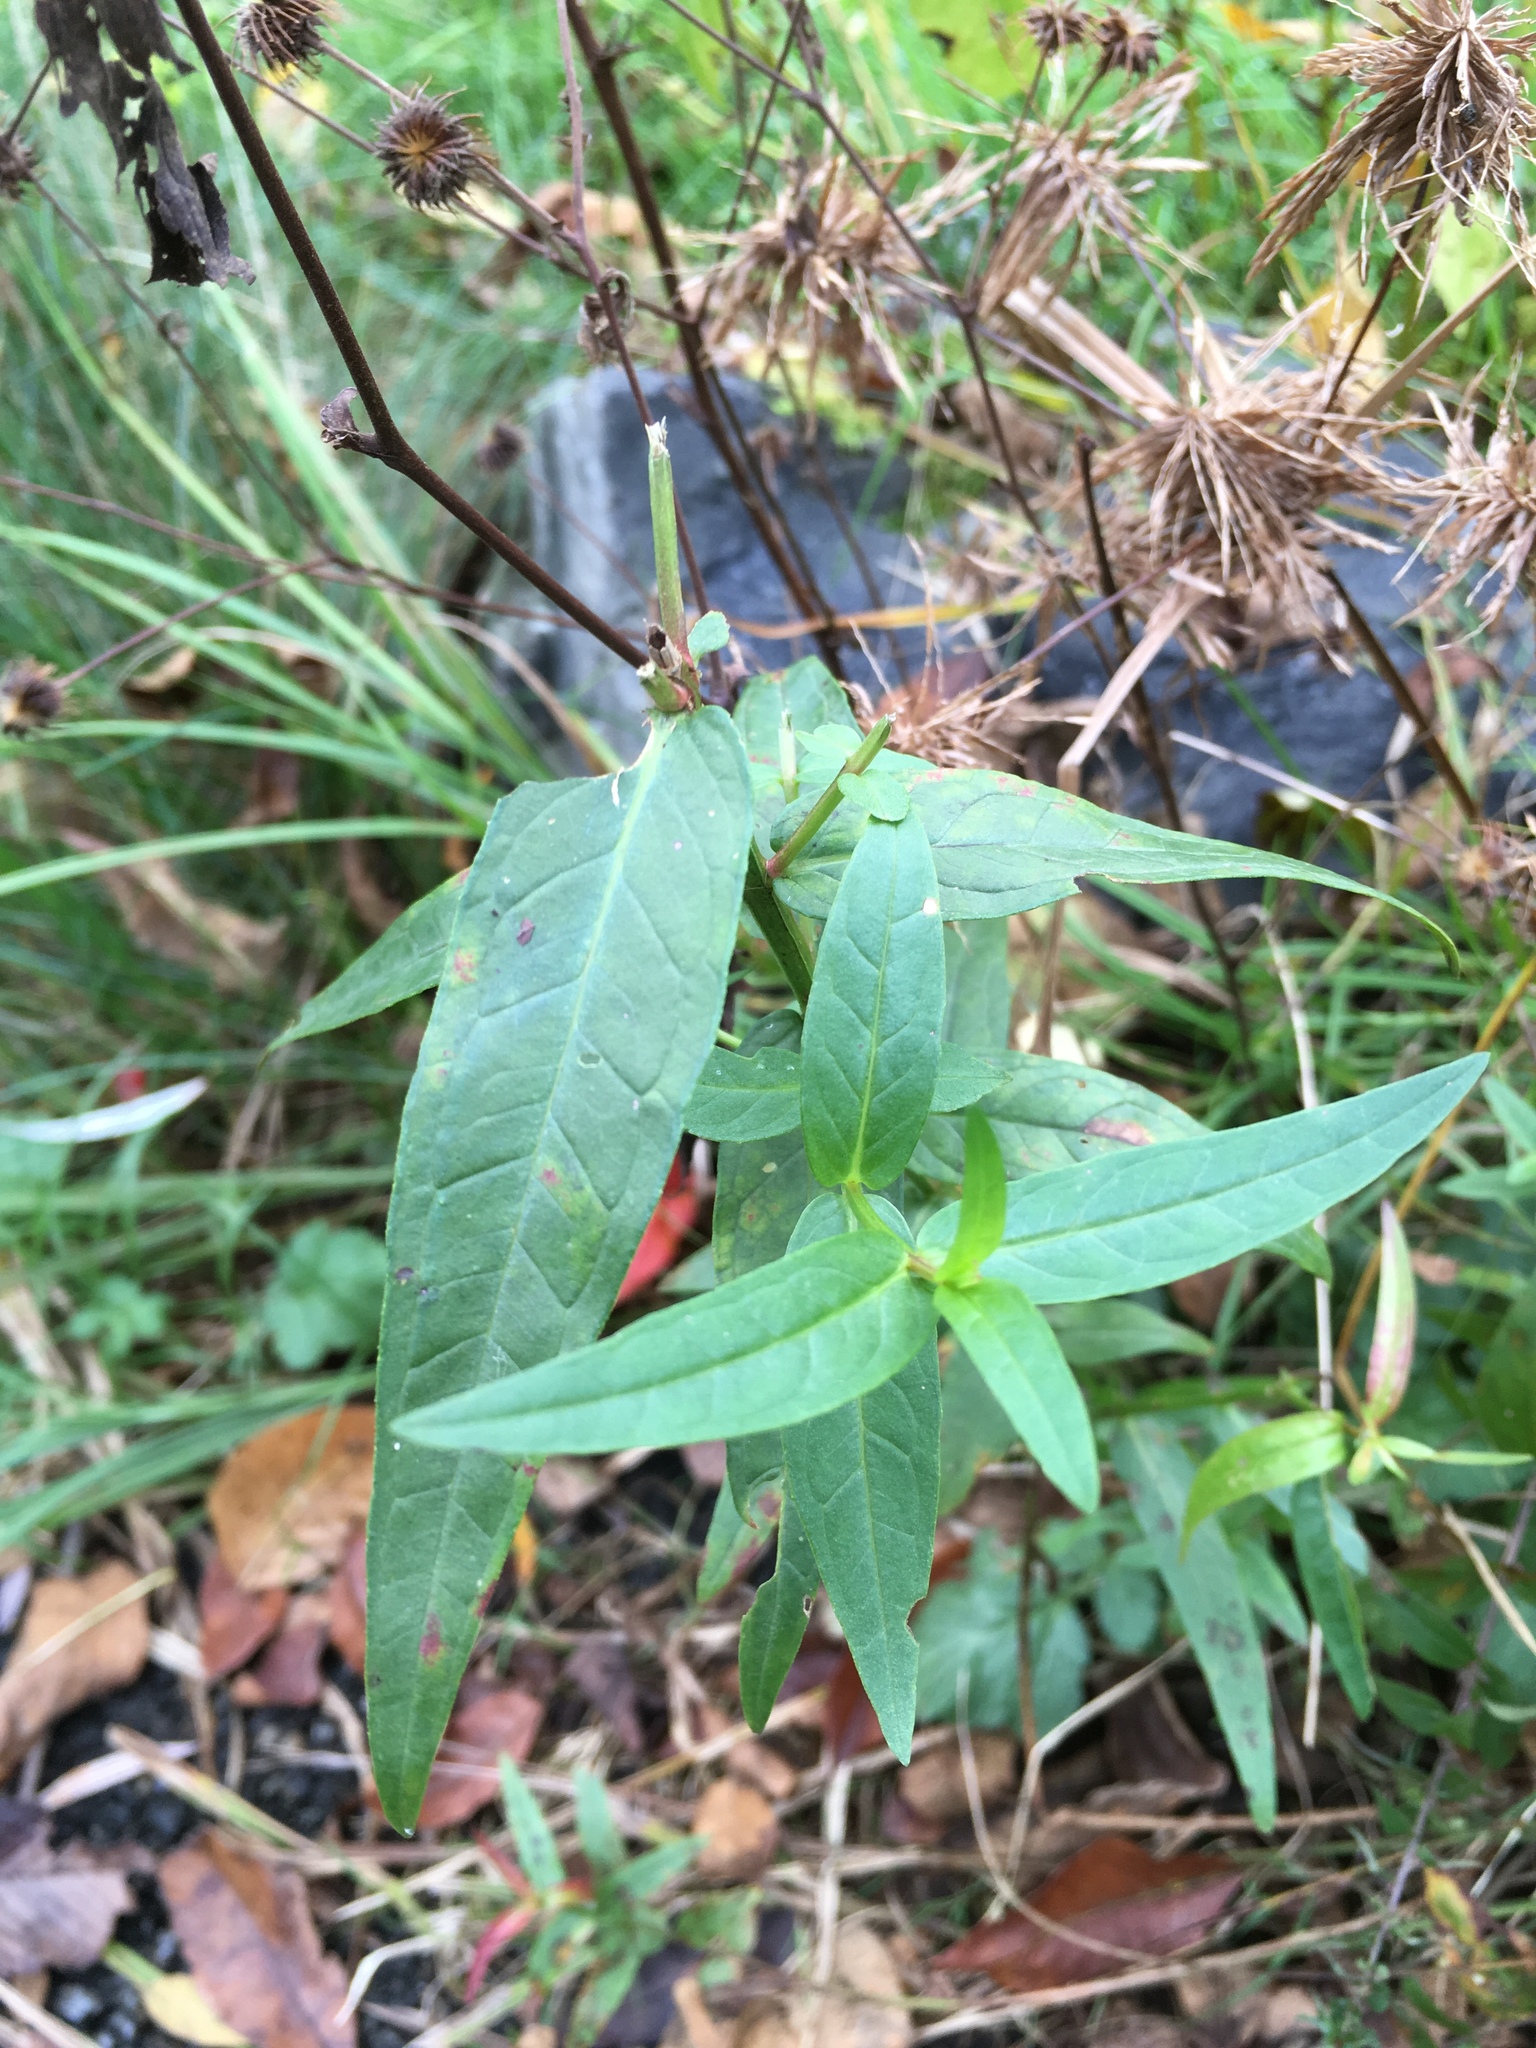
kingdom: Plantae
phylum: Tracheophyta
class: Magnoliopsida
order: Myrtales
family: Lythraceae
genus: Lythrum
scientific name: Lythrum salicaria
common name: Purple loosestrife
